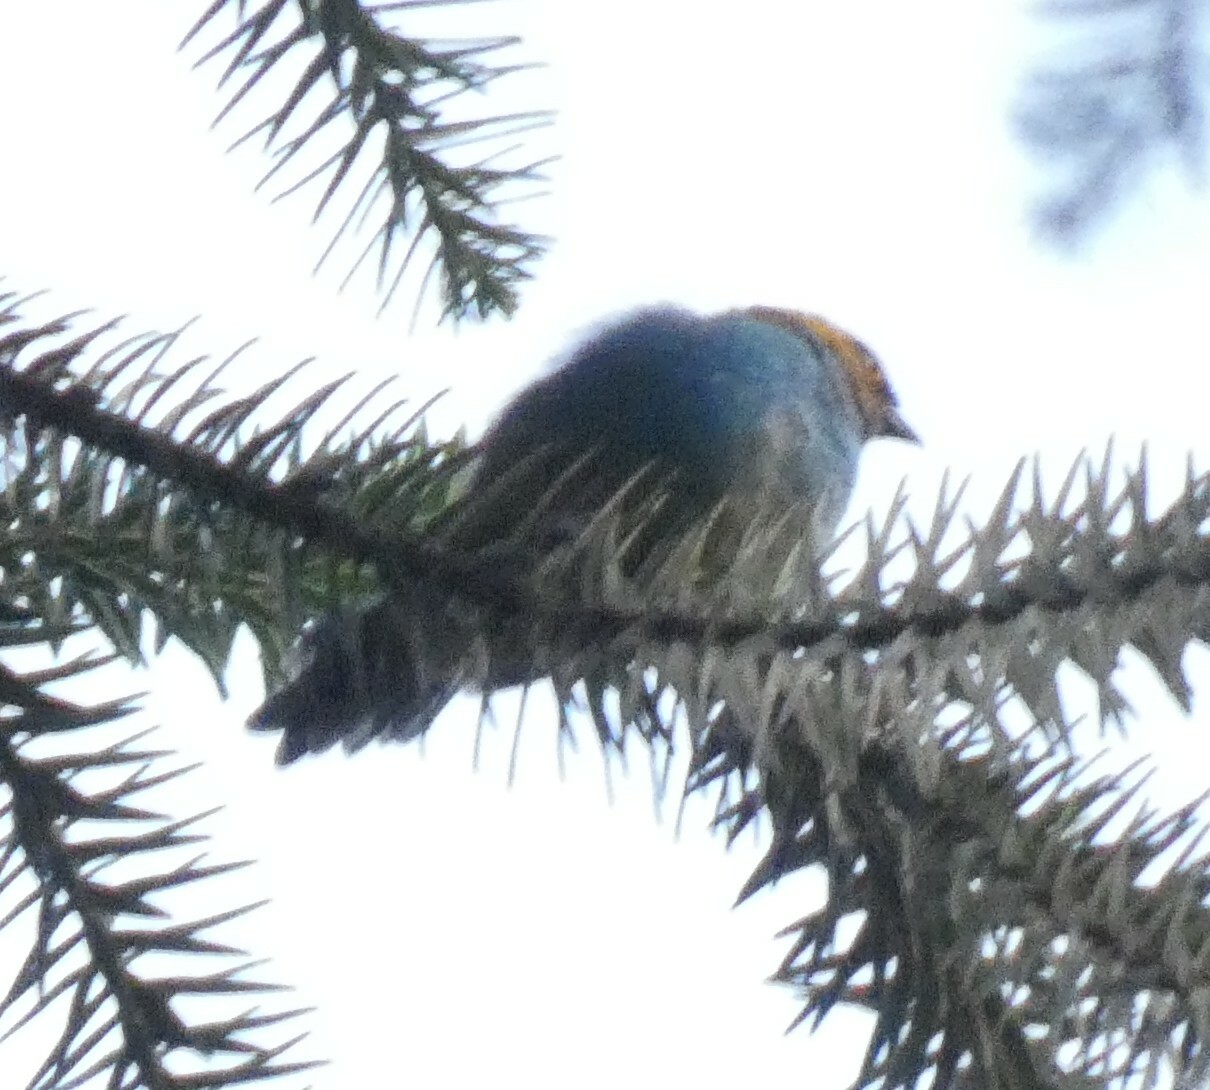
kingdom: Animalia
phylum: Chordata
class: Aves
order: Passeriformes
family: Thraupidae
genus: Tangara
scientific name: Tangara cyanoventris
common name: Gilt-edged tanager
